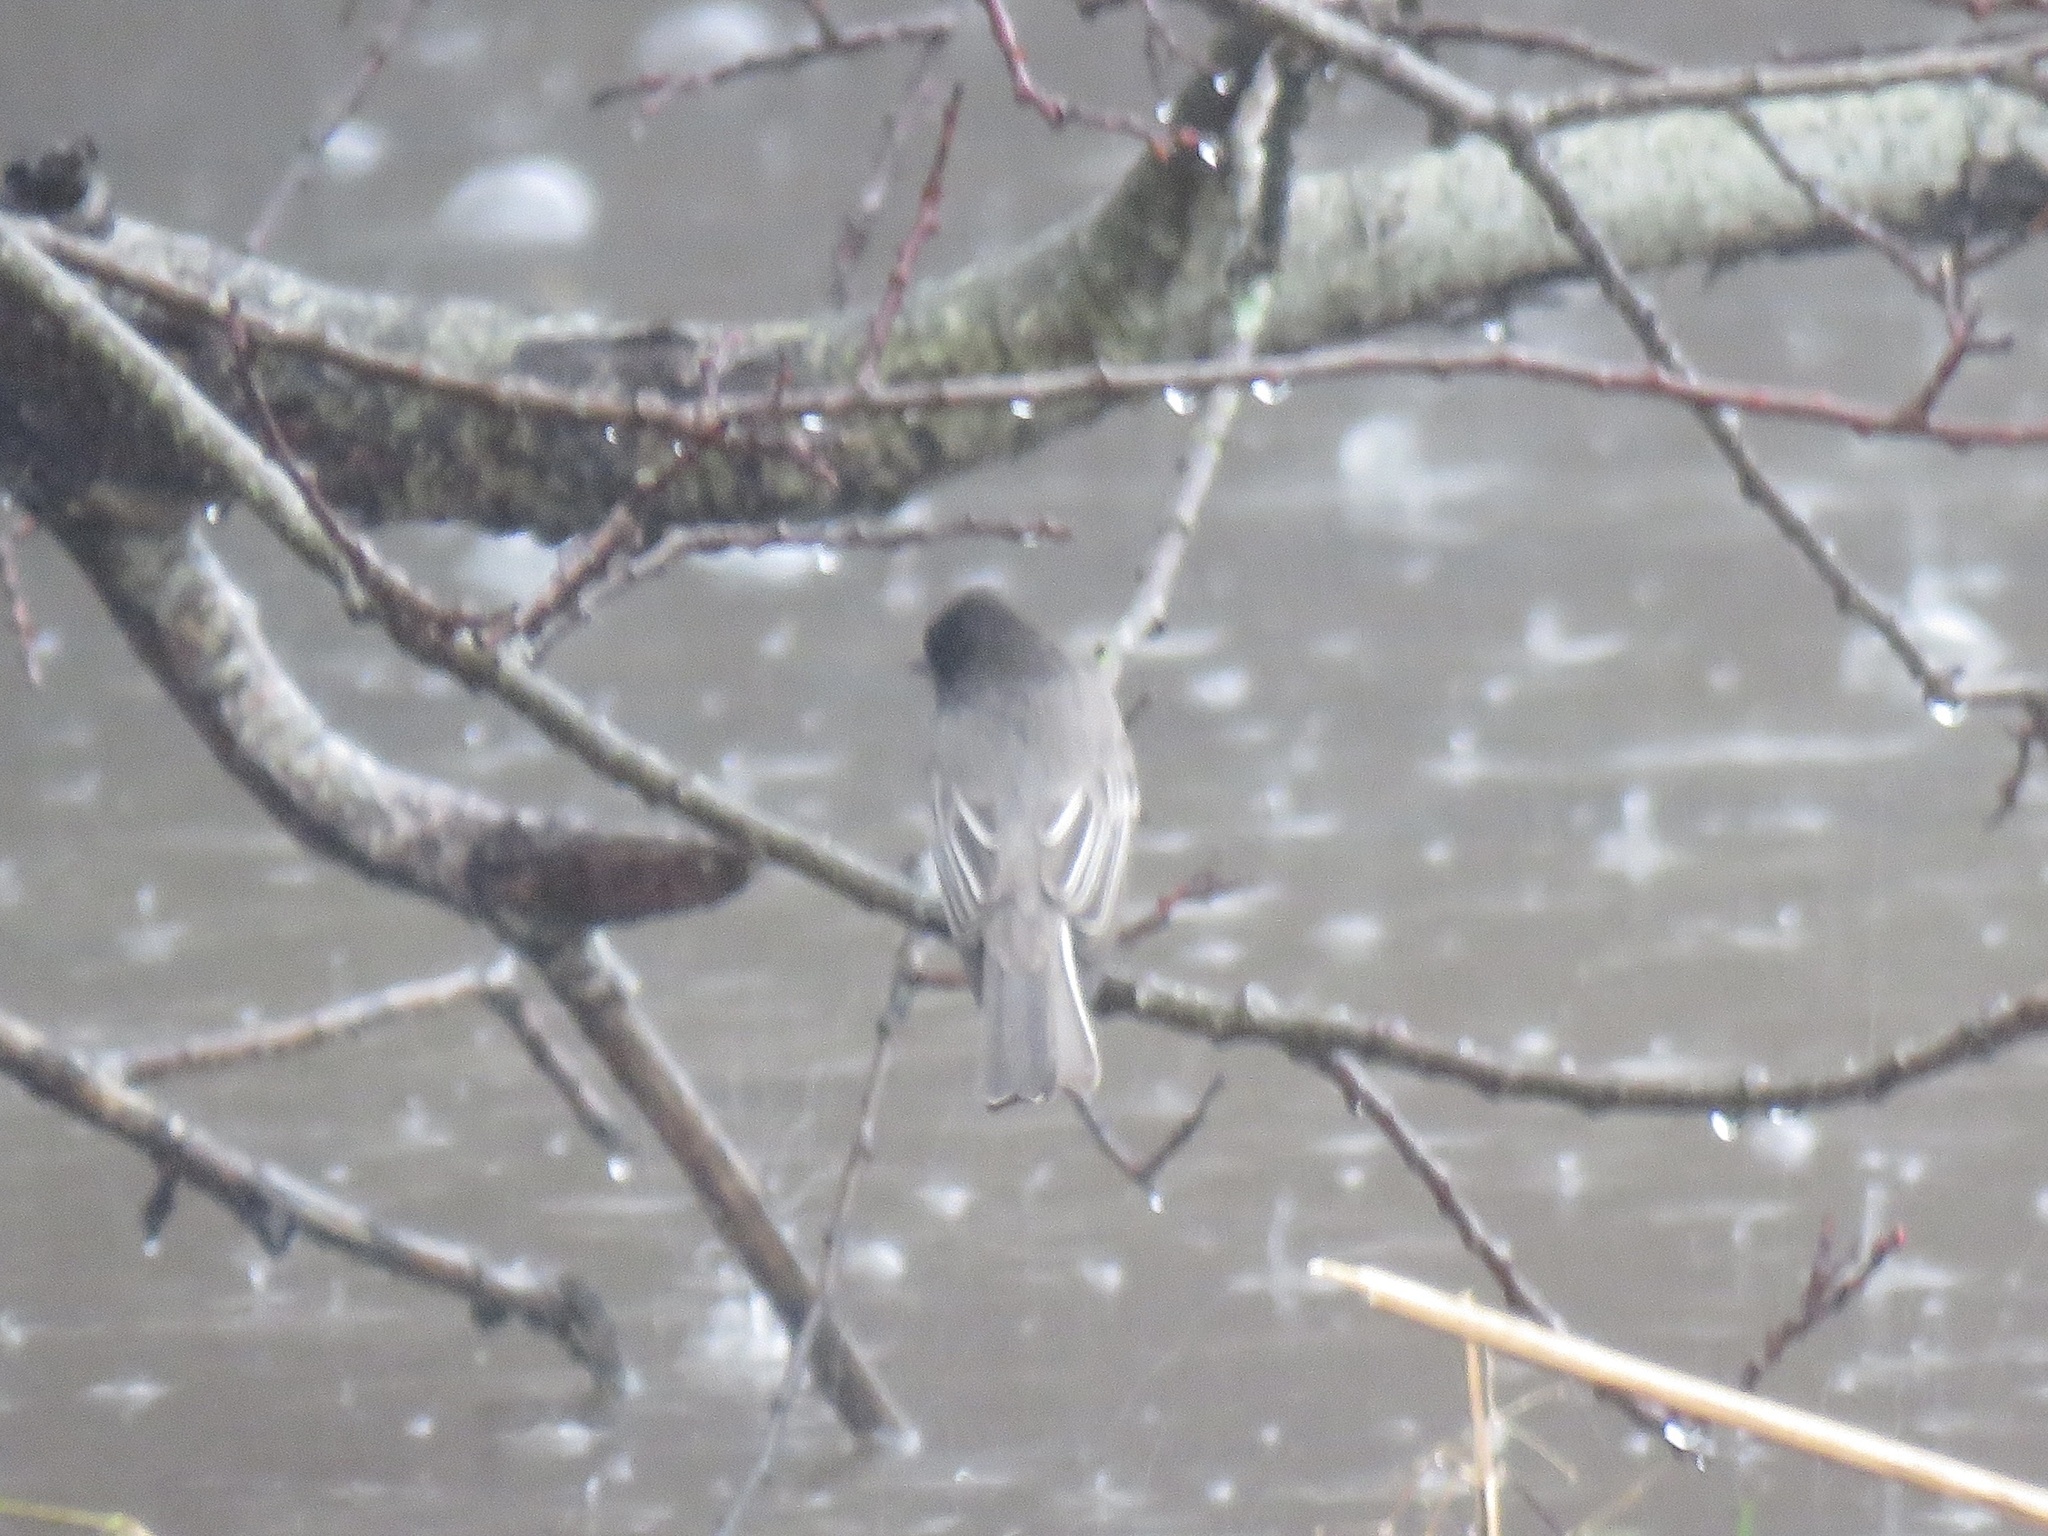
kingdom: Animalia
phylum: Chordata
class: Aves
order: Passeriformes
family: Tyrannidae
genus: Sayornis
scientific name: Sayornis nigricans
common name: Black phoebe
